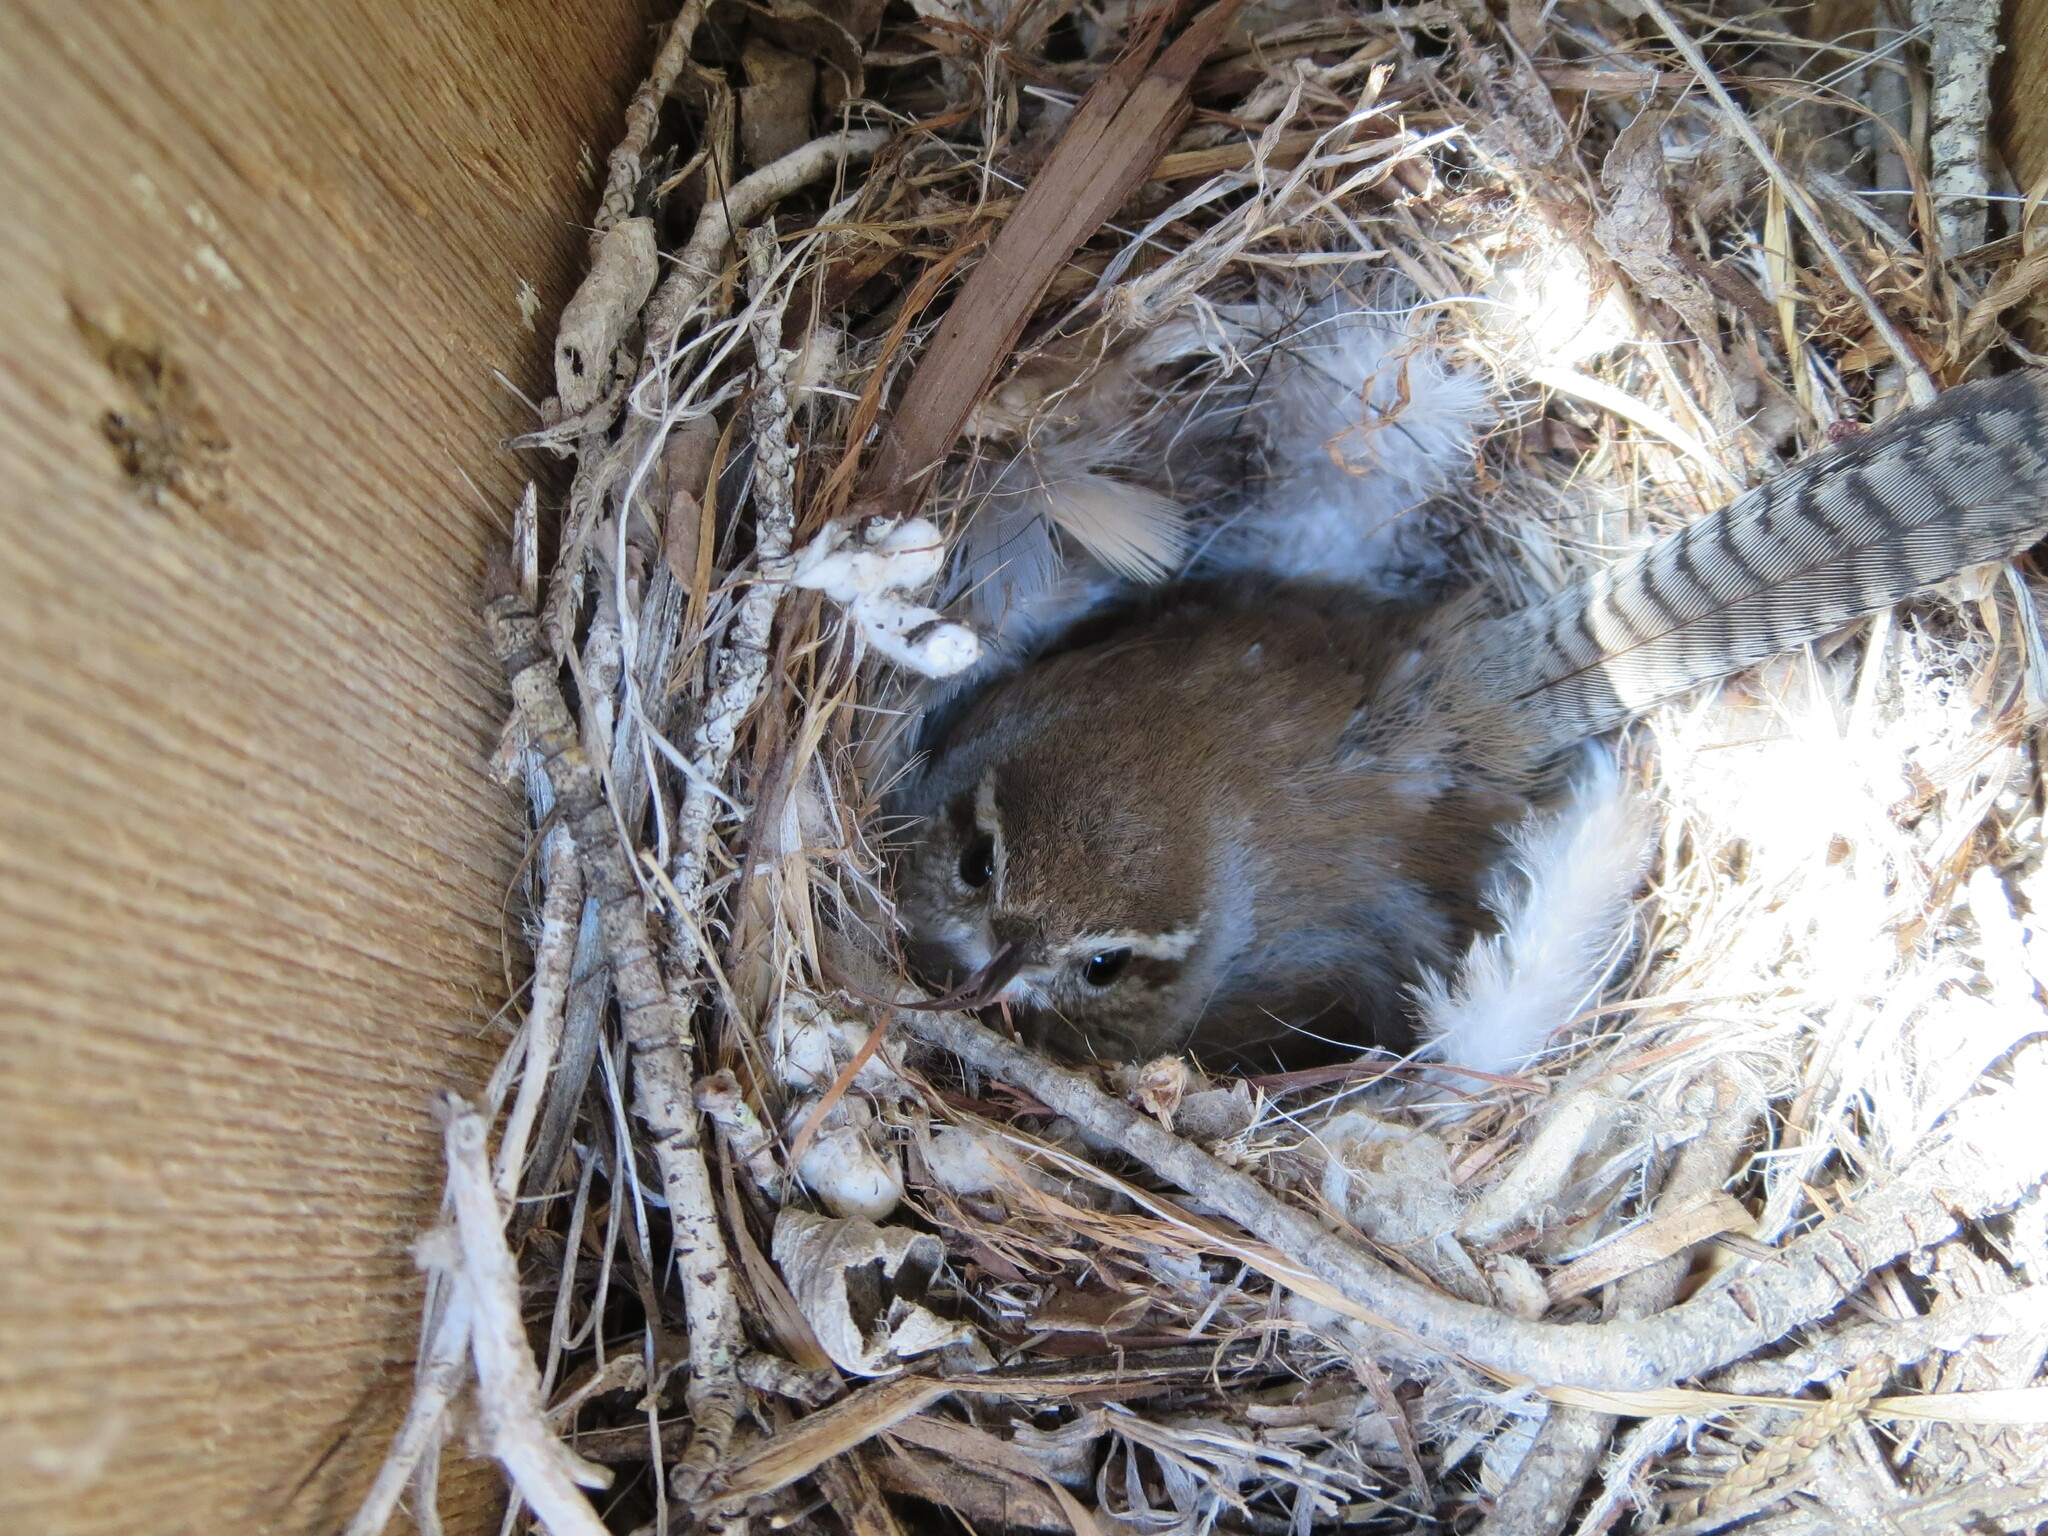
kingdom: Animalia
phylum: Chordata
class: Aves
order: Passeriformes
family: Troglodytidae
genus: Thryomanes
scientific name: Thryomanes bewickii
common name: Bewick's wren
